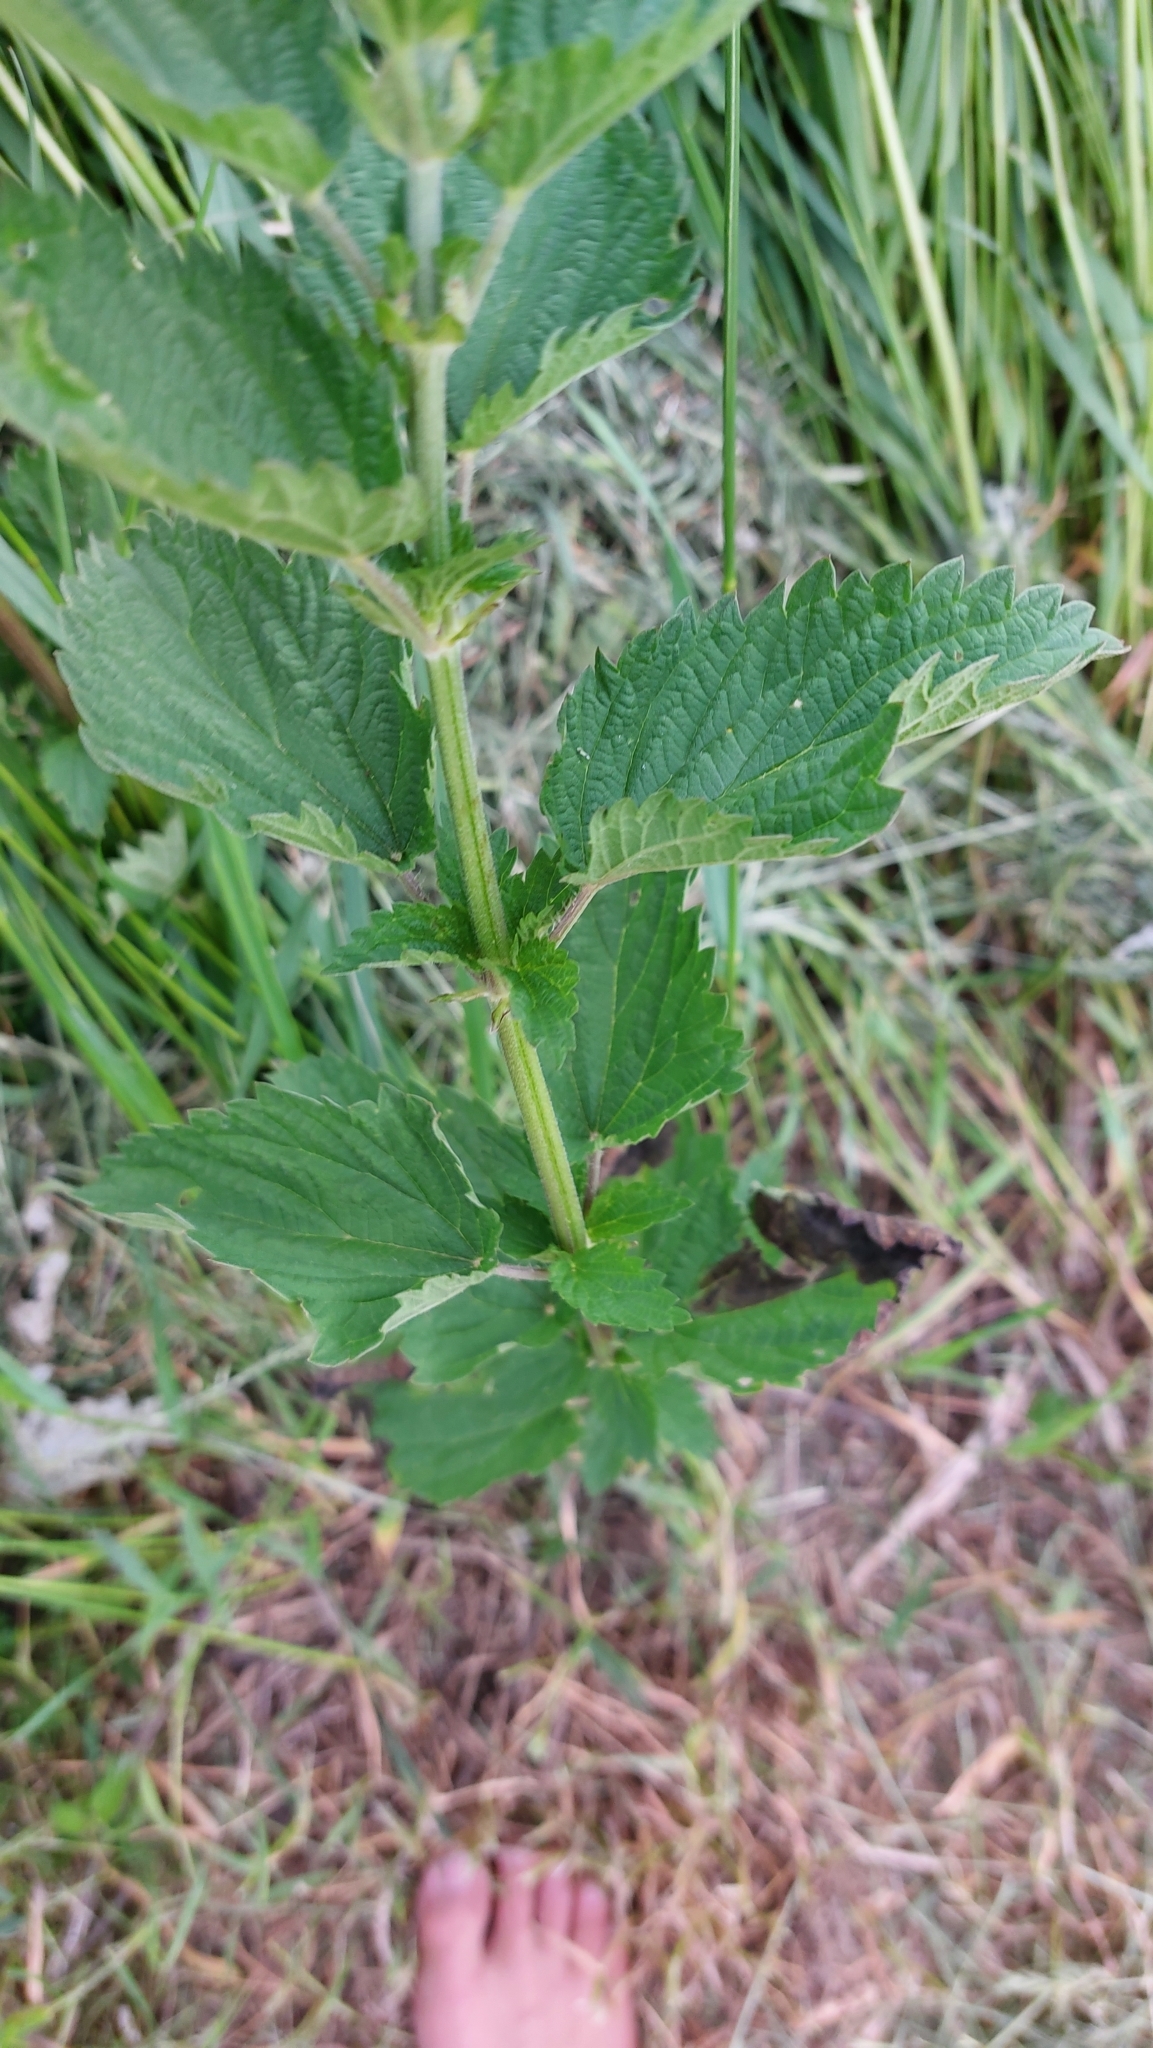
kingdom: Plantae
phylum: Tracheophyta
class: Magnoliopsida
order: Rosales
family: Urticaceae
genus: Urtica
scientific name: Urtica dioica
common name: Common nettle
